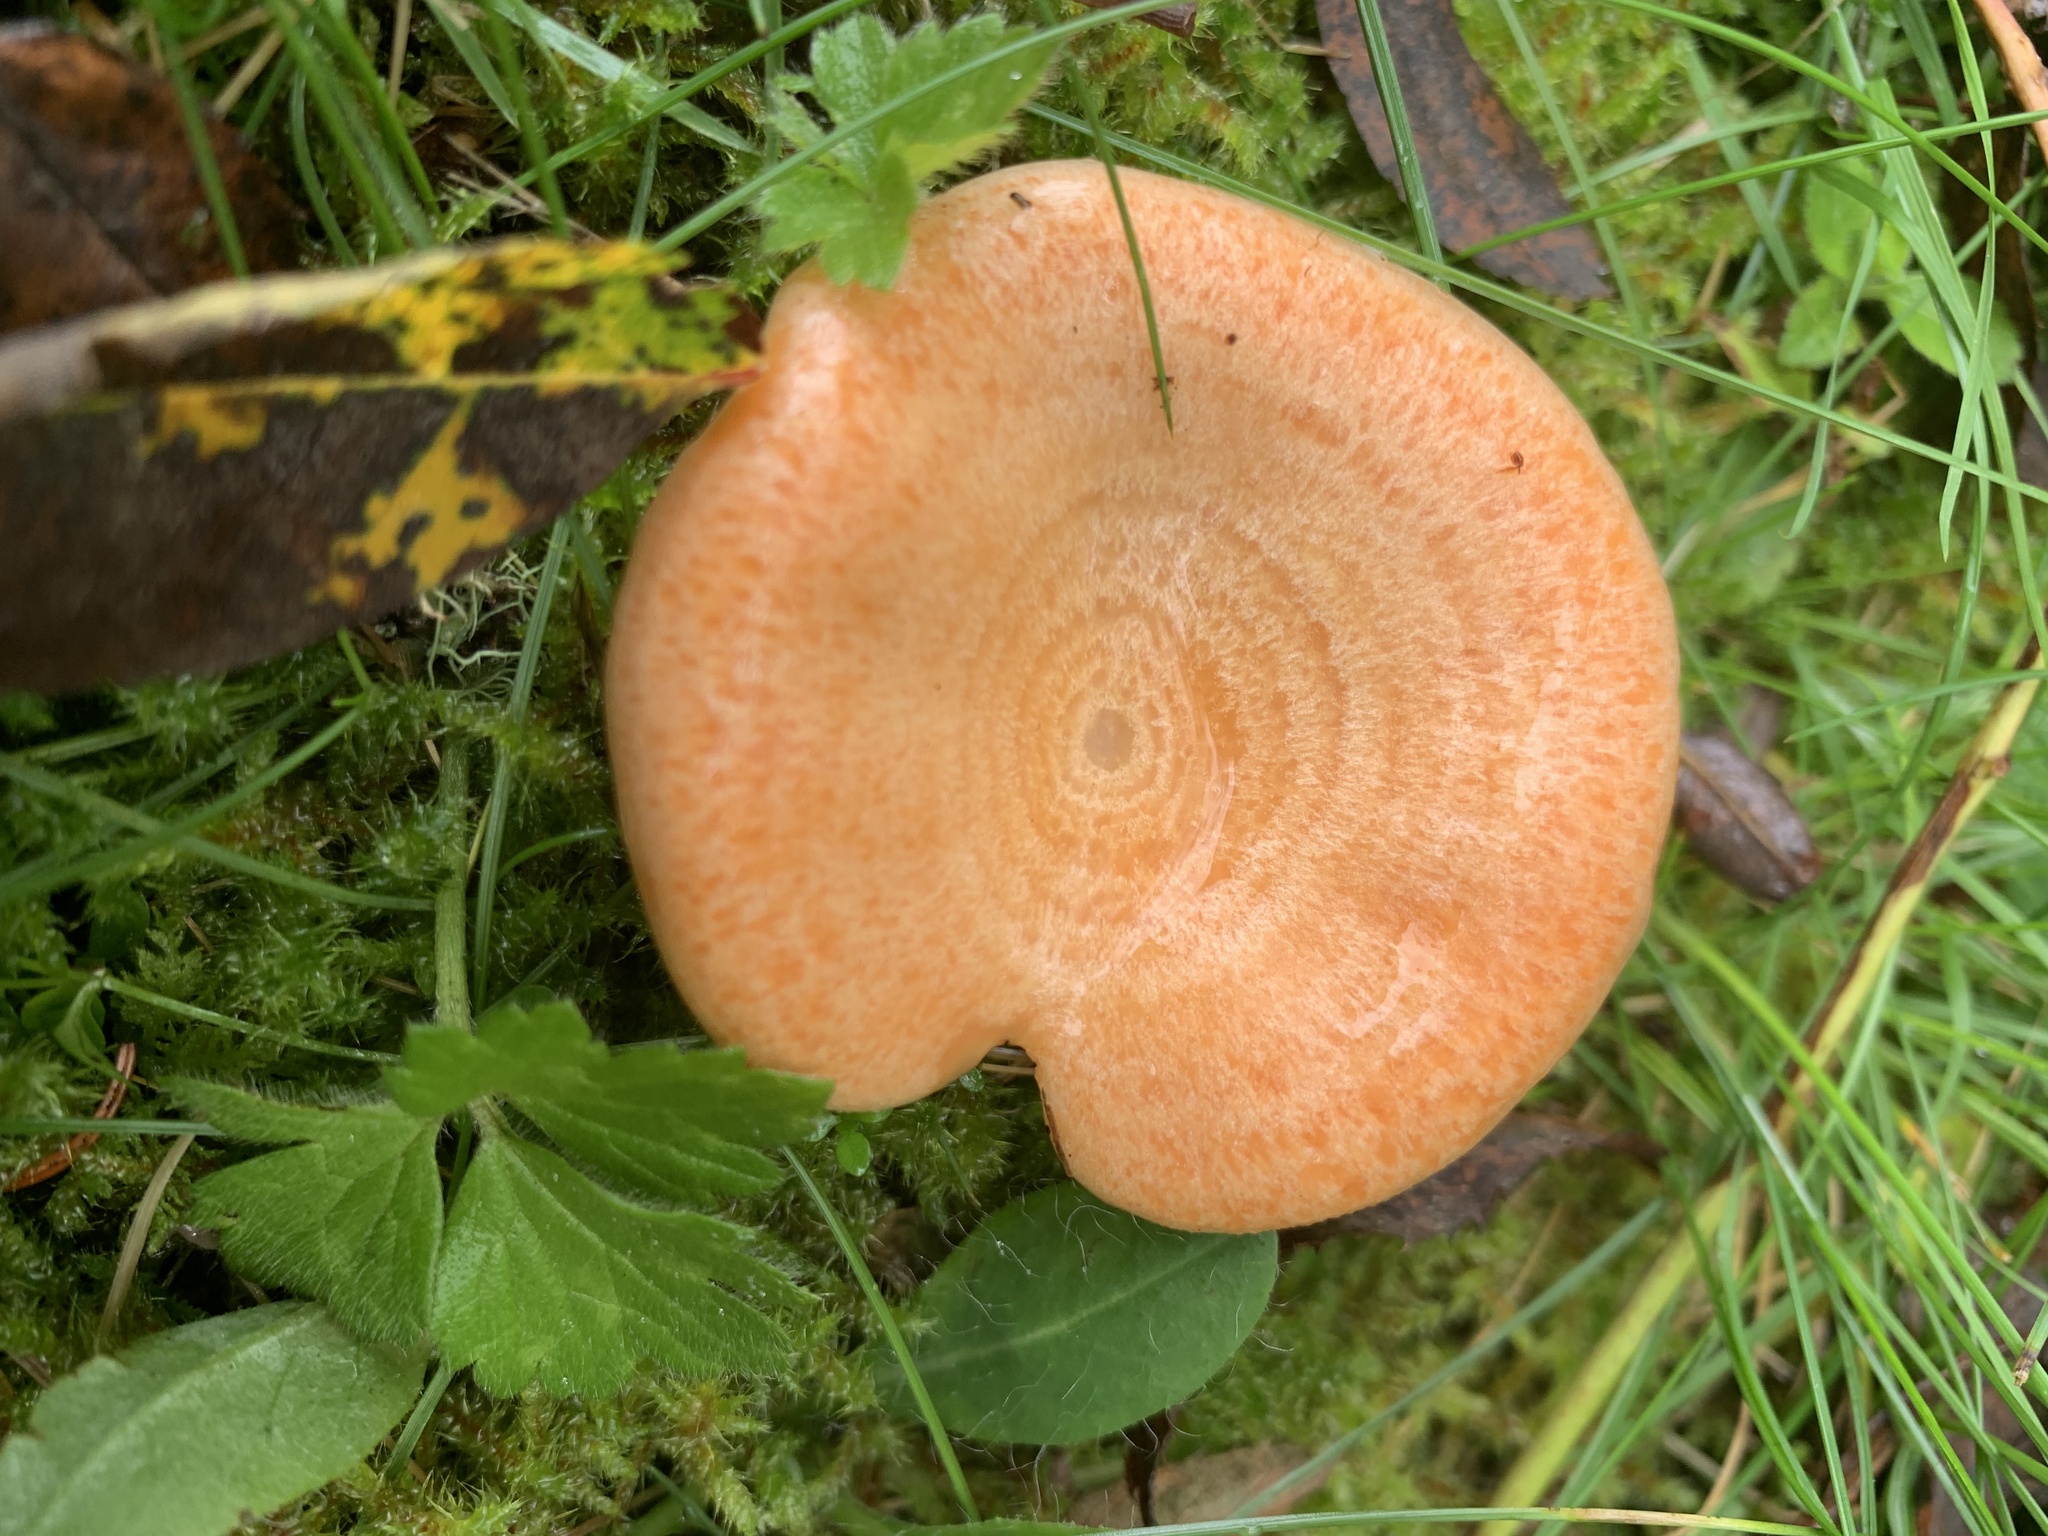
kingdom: Fungi
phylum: Basidiomycota
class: Agaricomycetes
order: Russulales
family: Russulaceae
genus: Lactarius
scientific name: Lactarius salmonicolor
